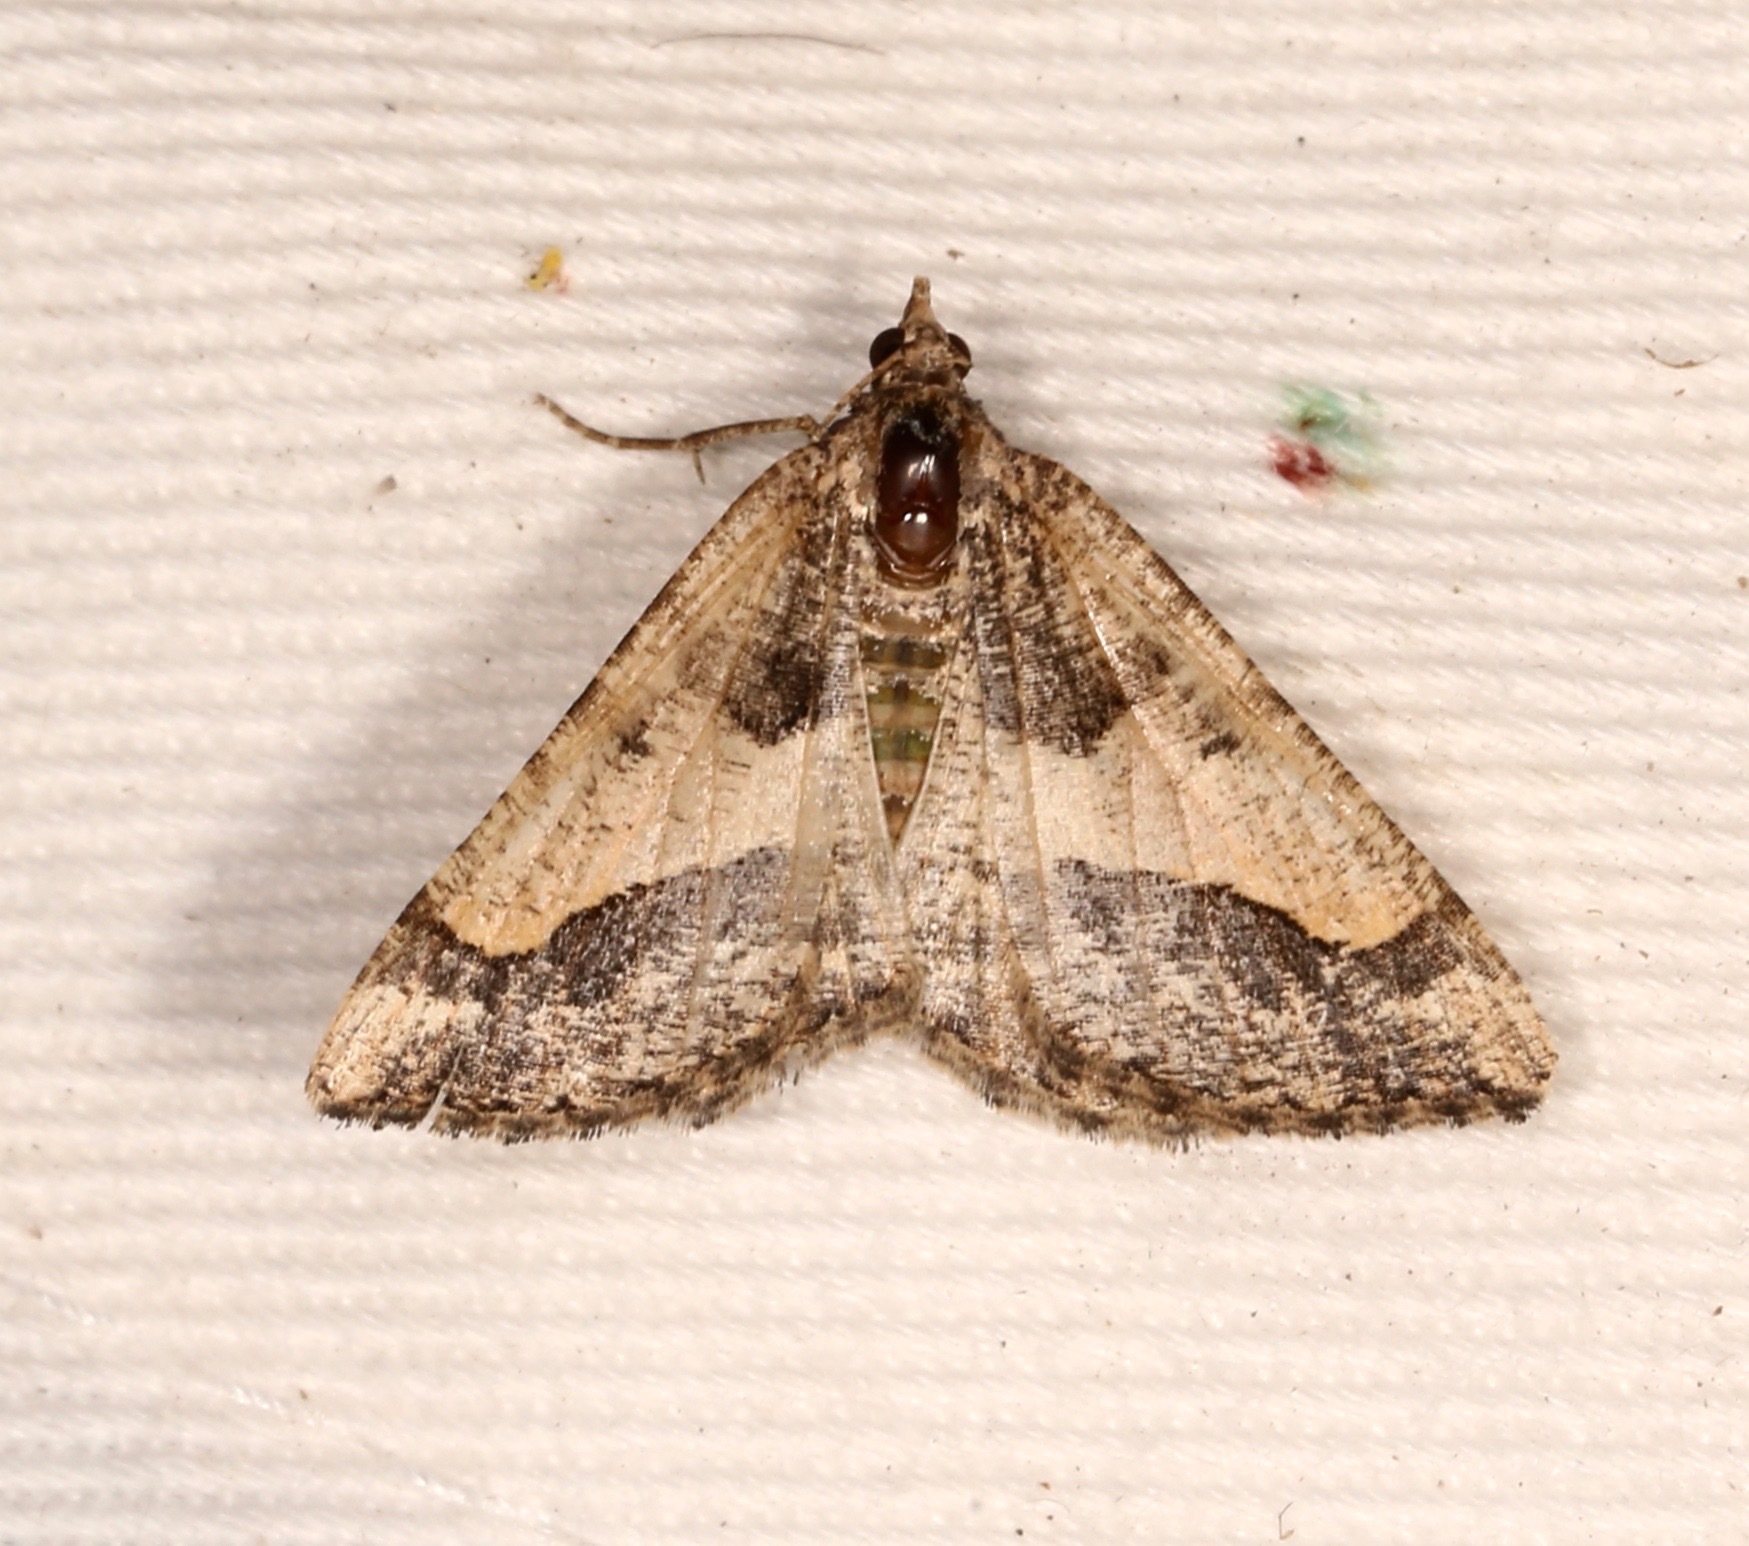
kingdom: Animalia
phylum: Arthropoda
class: Insecta
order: Lepidoptera
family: Geometridae
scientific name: Geometridae
